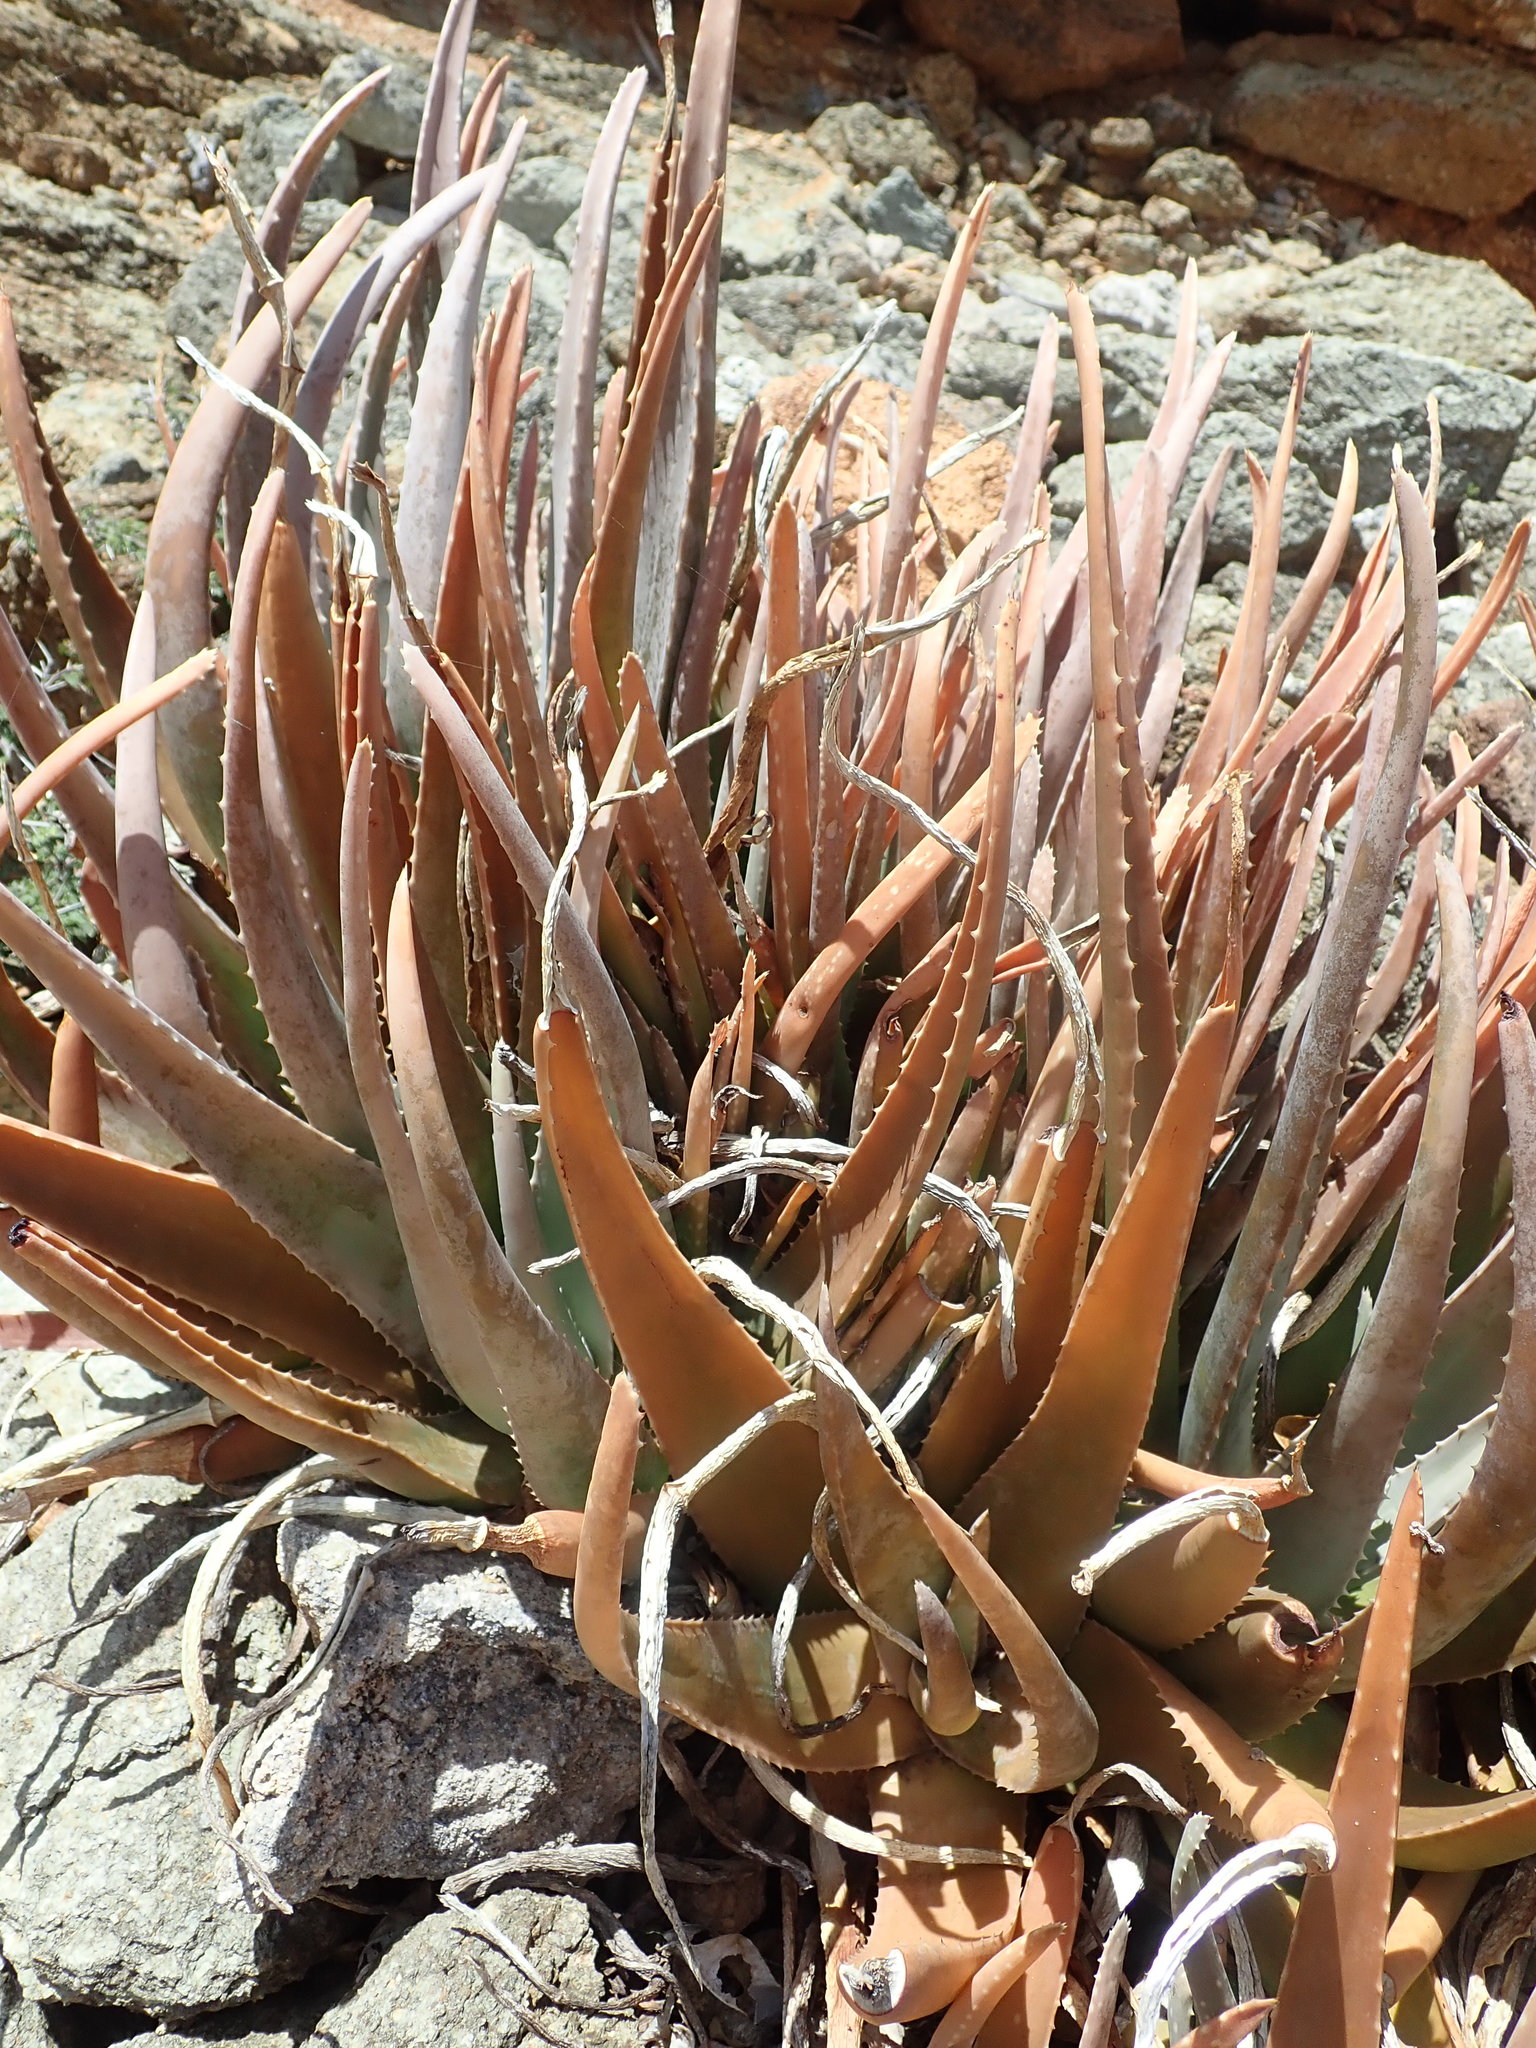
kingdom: Plantae
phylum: Tracheophyta
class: Liliopsida
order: Asparagales
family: Asphodelaceae
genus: Aloe
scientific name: Aloe vera
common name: Barbados aloe
